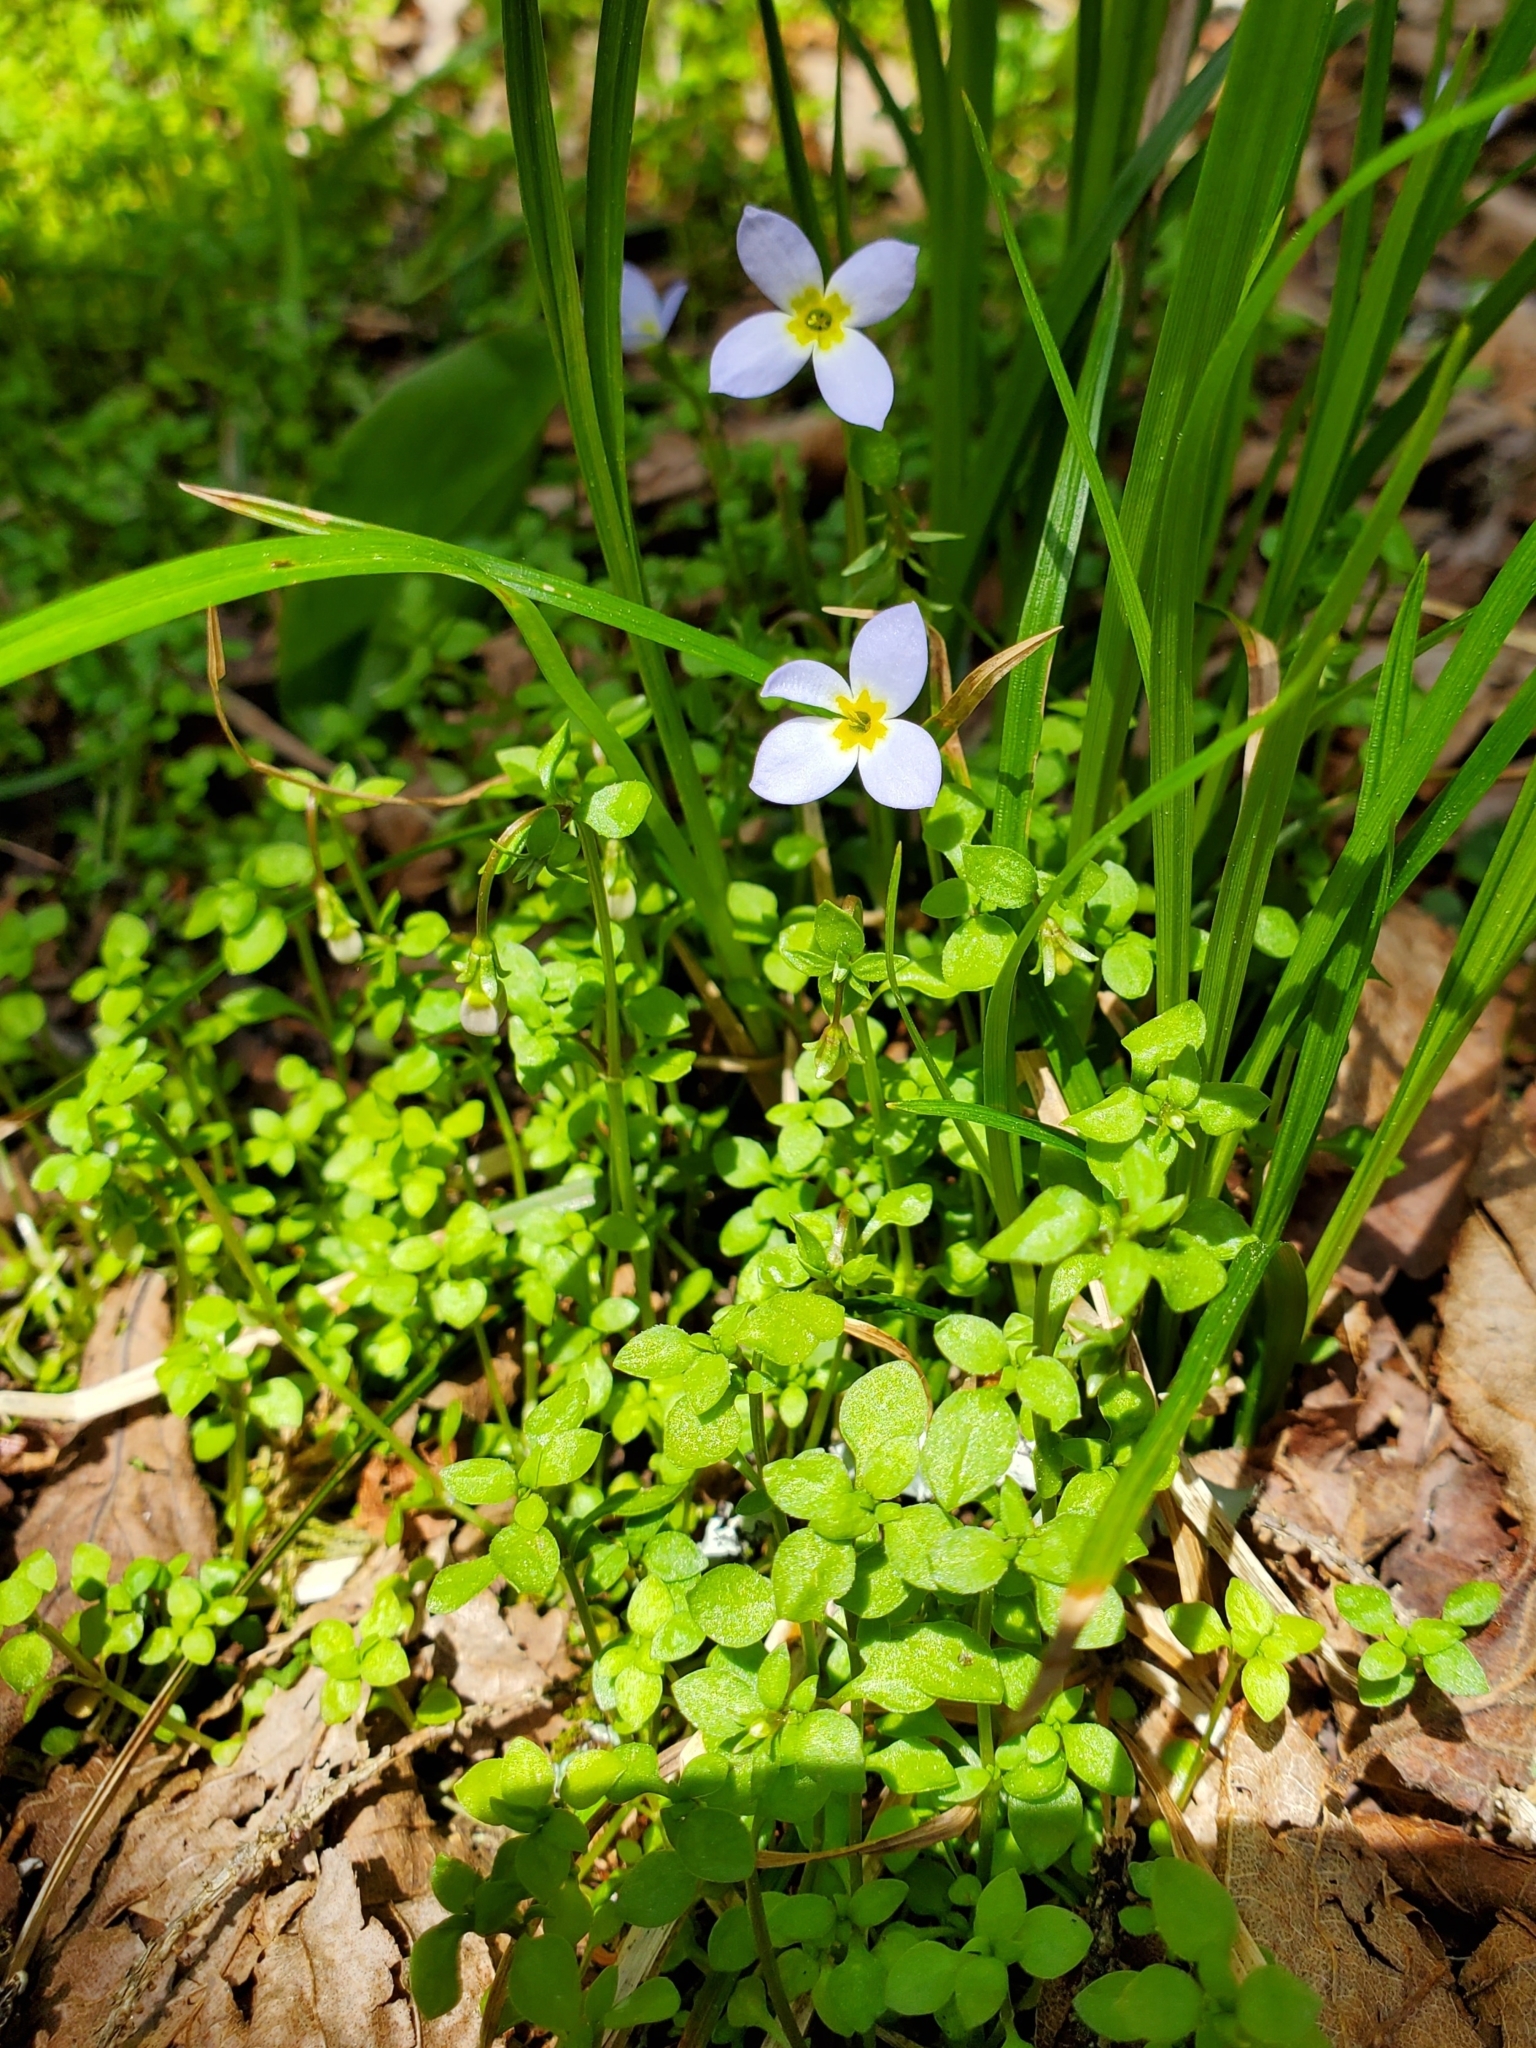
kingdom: Plantae
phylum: Tracheophyta
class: Magnoliopsida
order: Gentianales
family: Rubiaceae
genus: Houstonia
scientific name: Houstonia serpyllifolia
